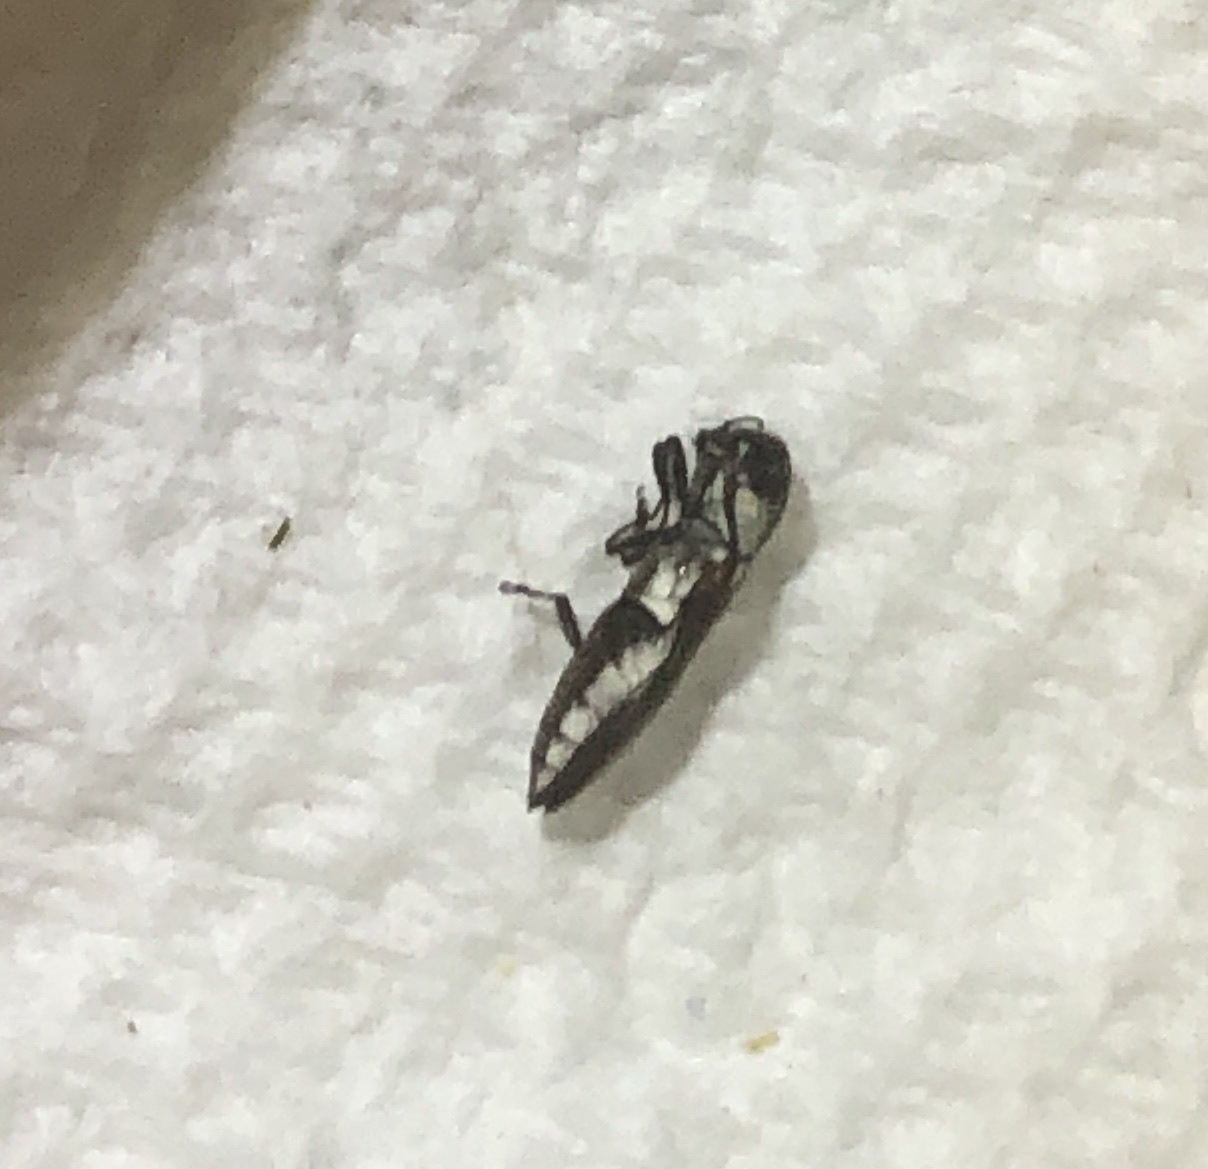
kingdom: Animalia
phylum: Arthropoda
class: Insecta
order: Coleoptera
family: Buprestidae
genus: Agrilus
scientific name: Agrilus blandus
